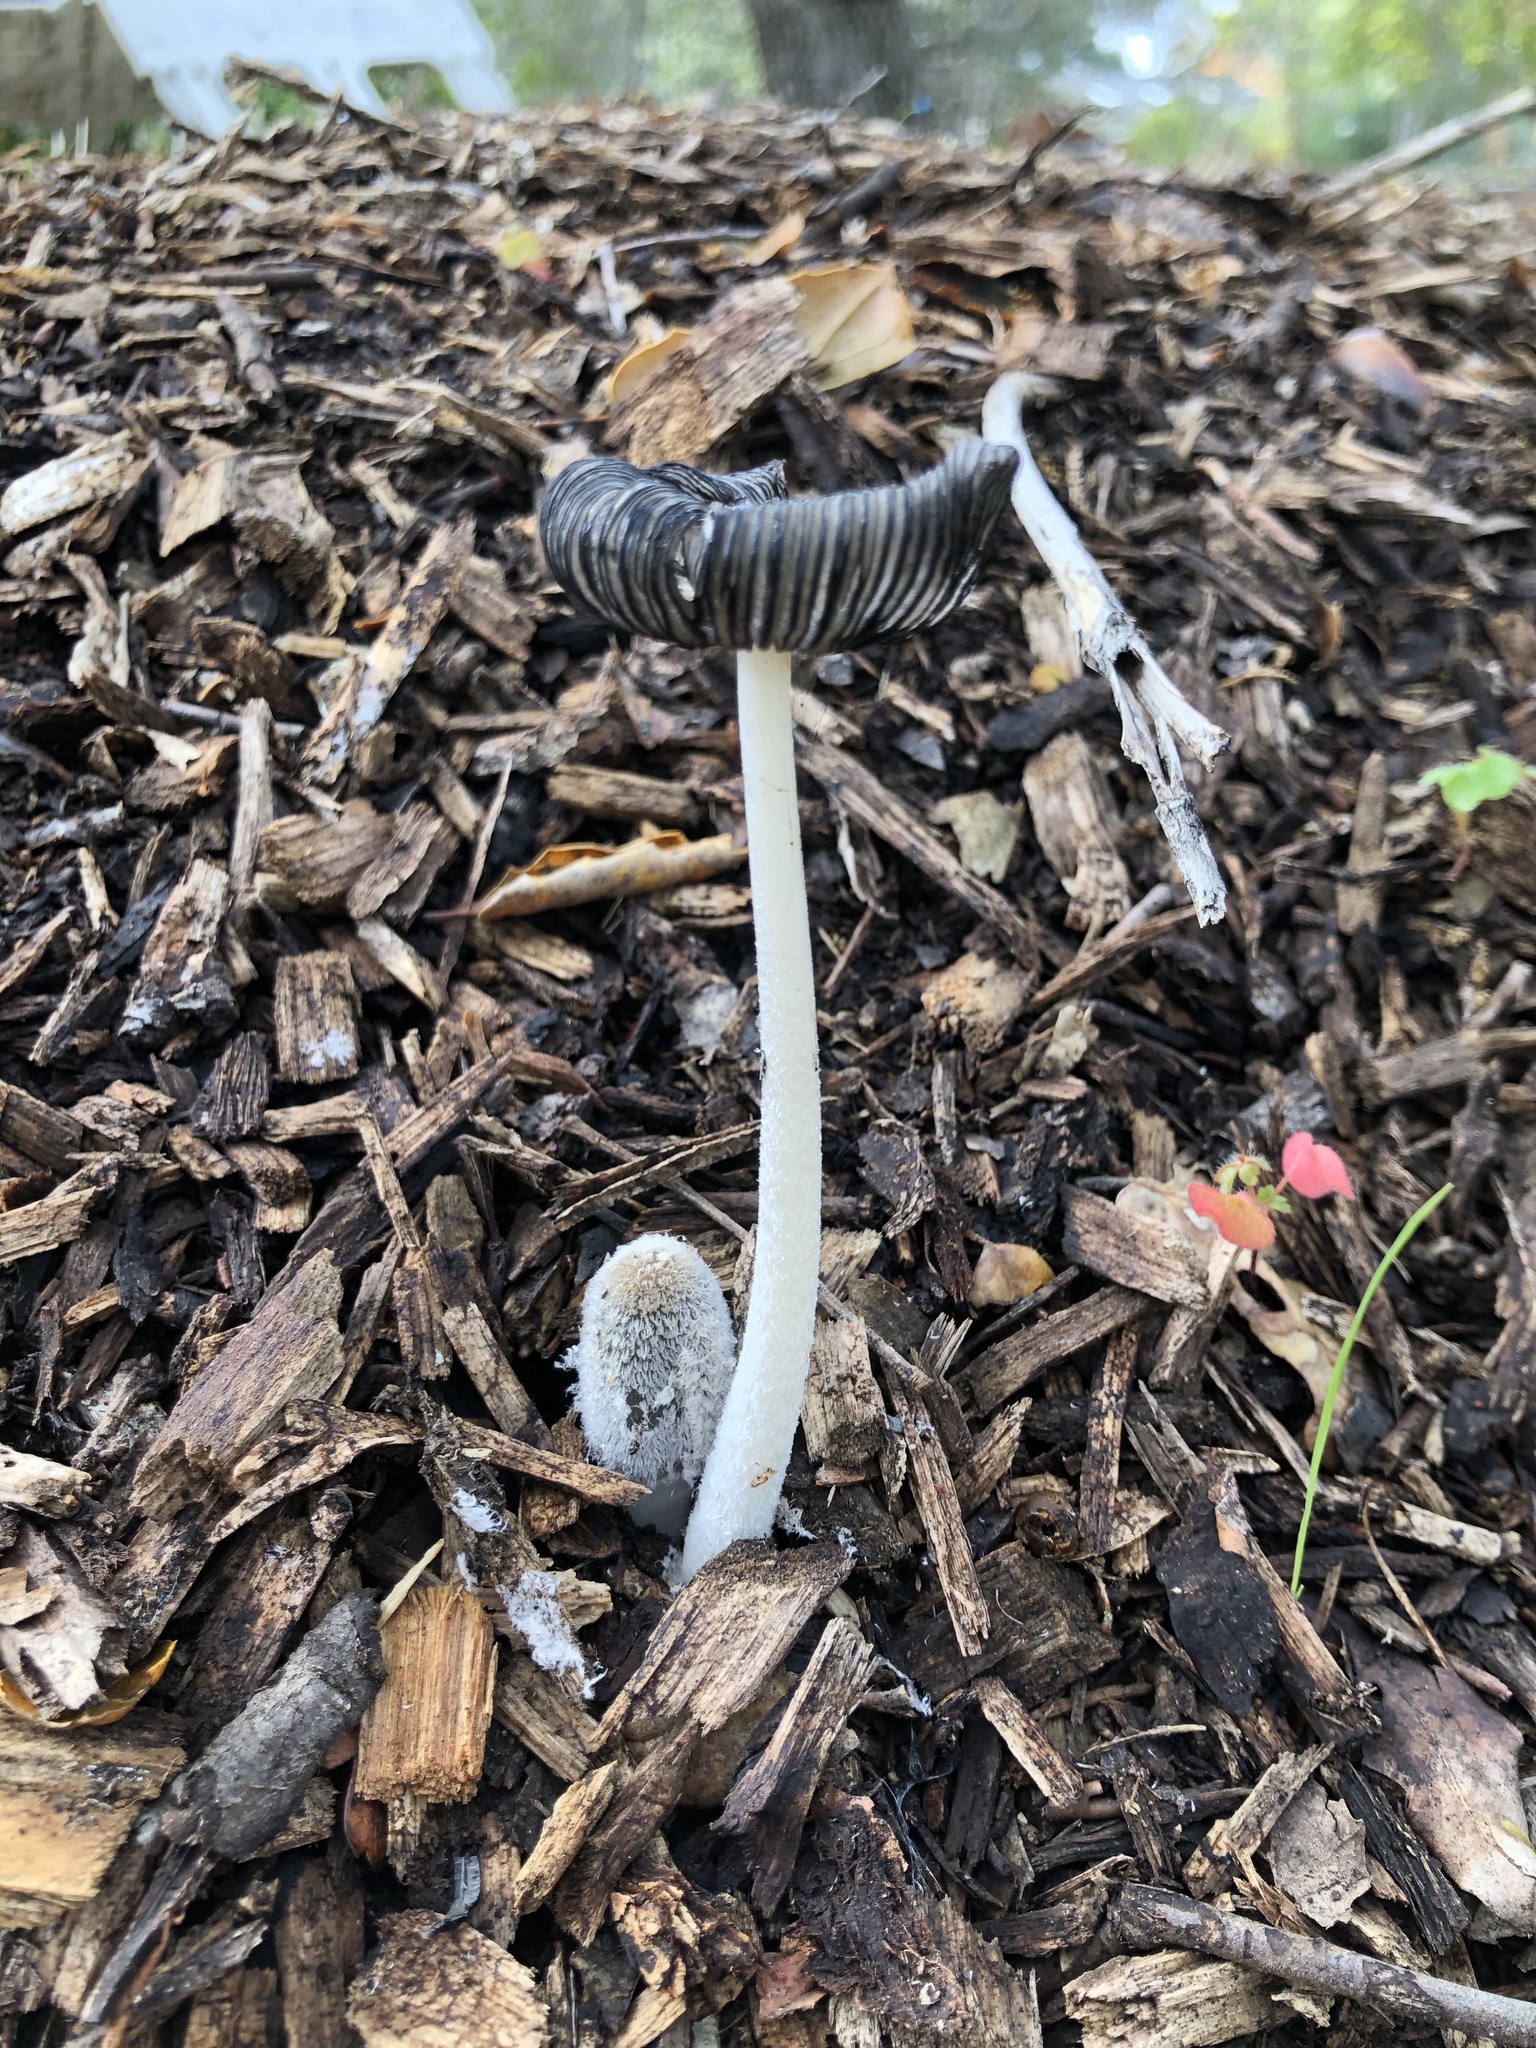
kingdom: Fungi
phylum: Basidiomycota
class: Agaricomycetes
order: Agaricales
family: Psathyrellaceae
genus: Coprinopsis
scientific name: Coprinopsis lagopus
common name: Hare'sfoot inkcap
